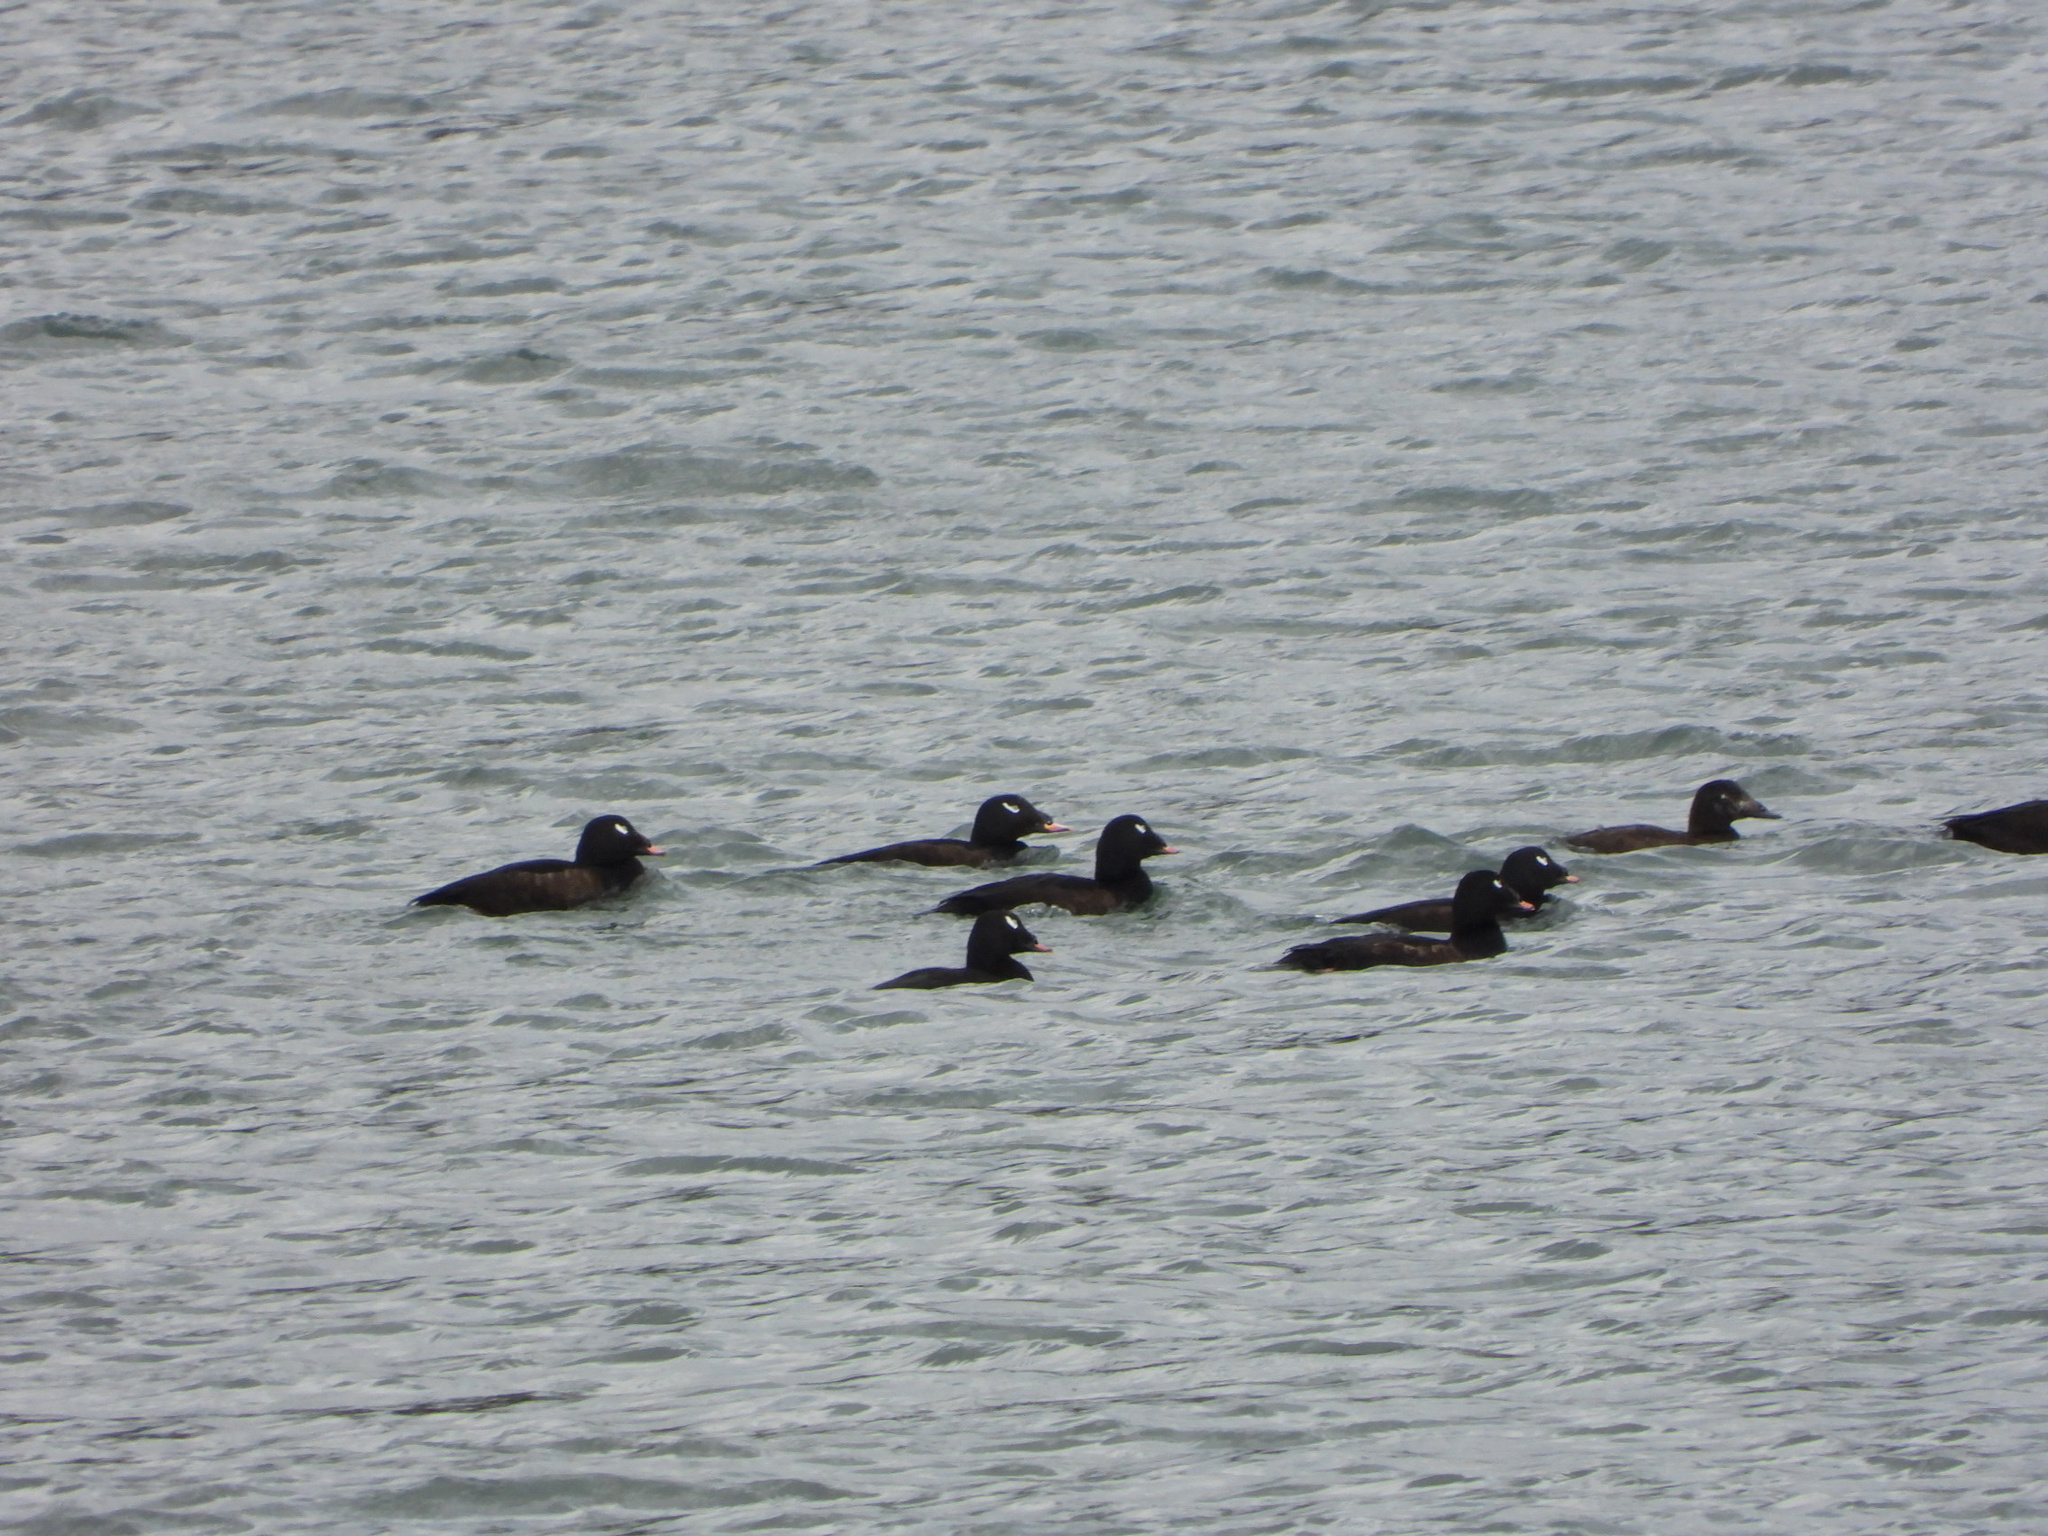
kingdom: Animalia
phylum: Chordata
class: Aves
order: Anseriformes
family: Anatidae
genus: Melanitta
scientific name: Melanitta deglandi
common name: White-winged scoter
